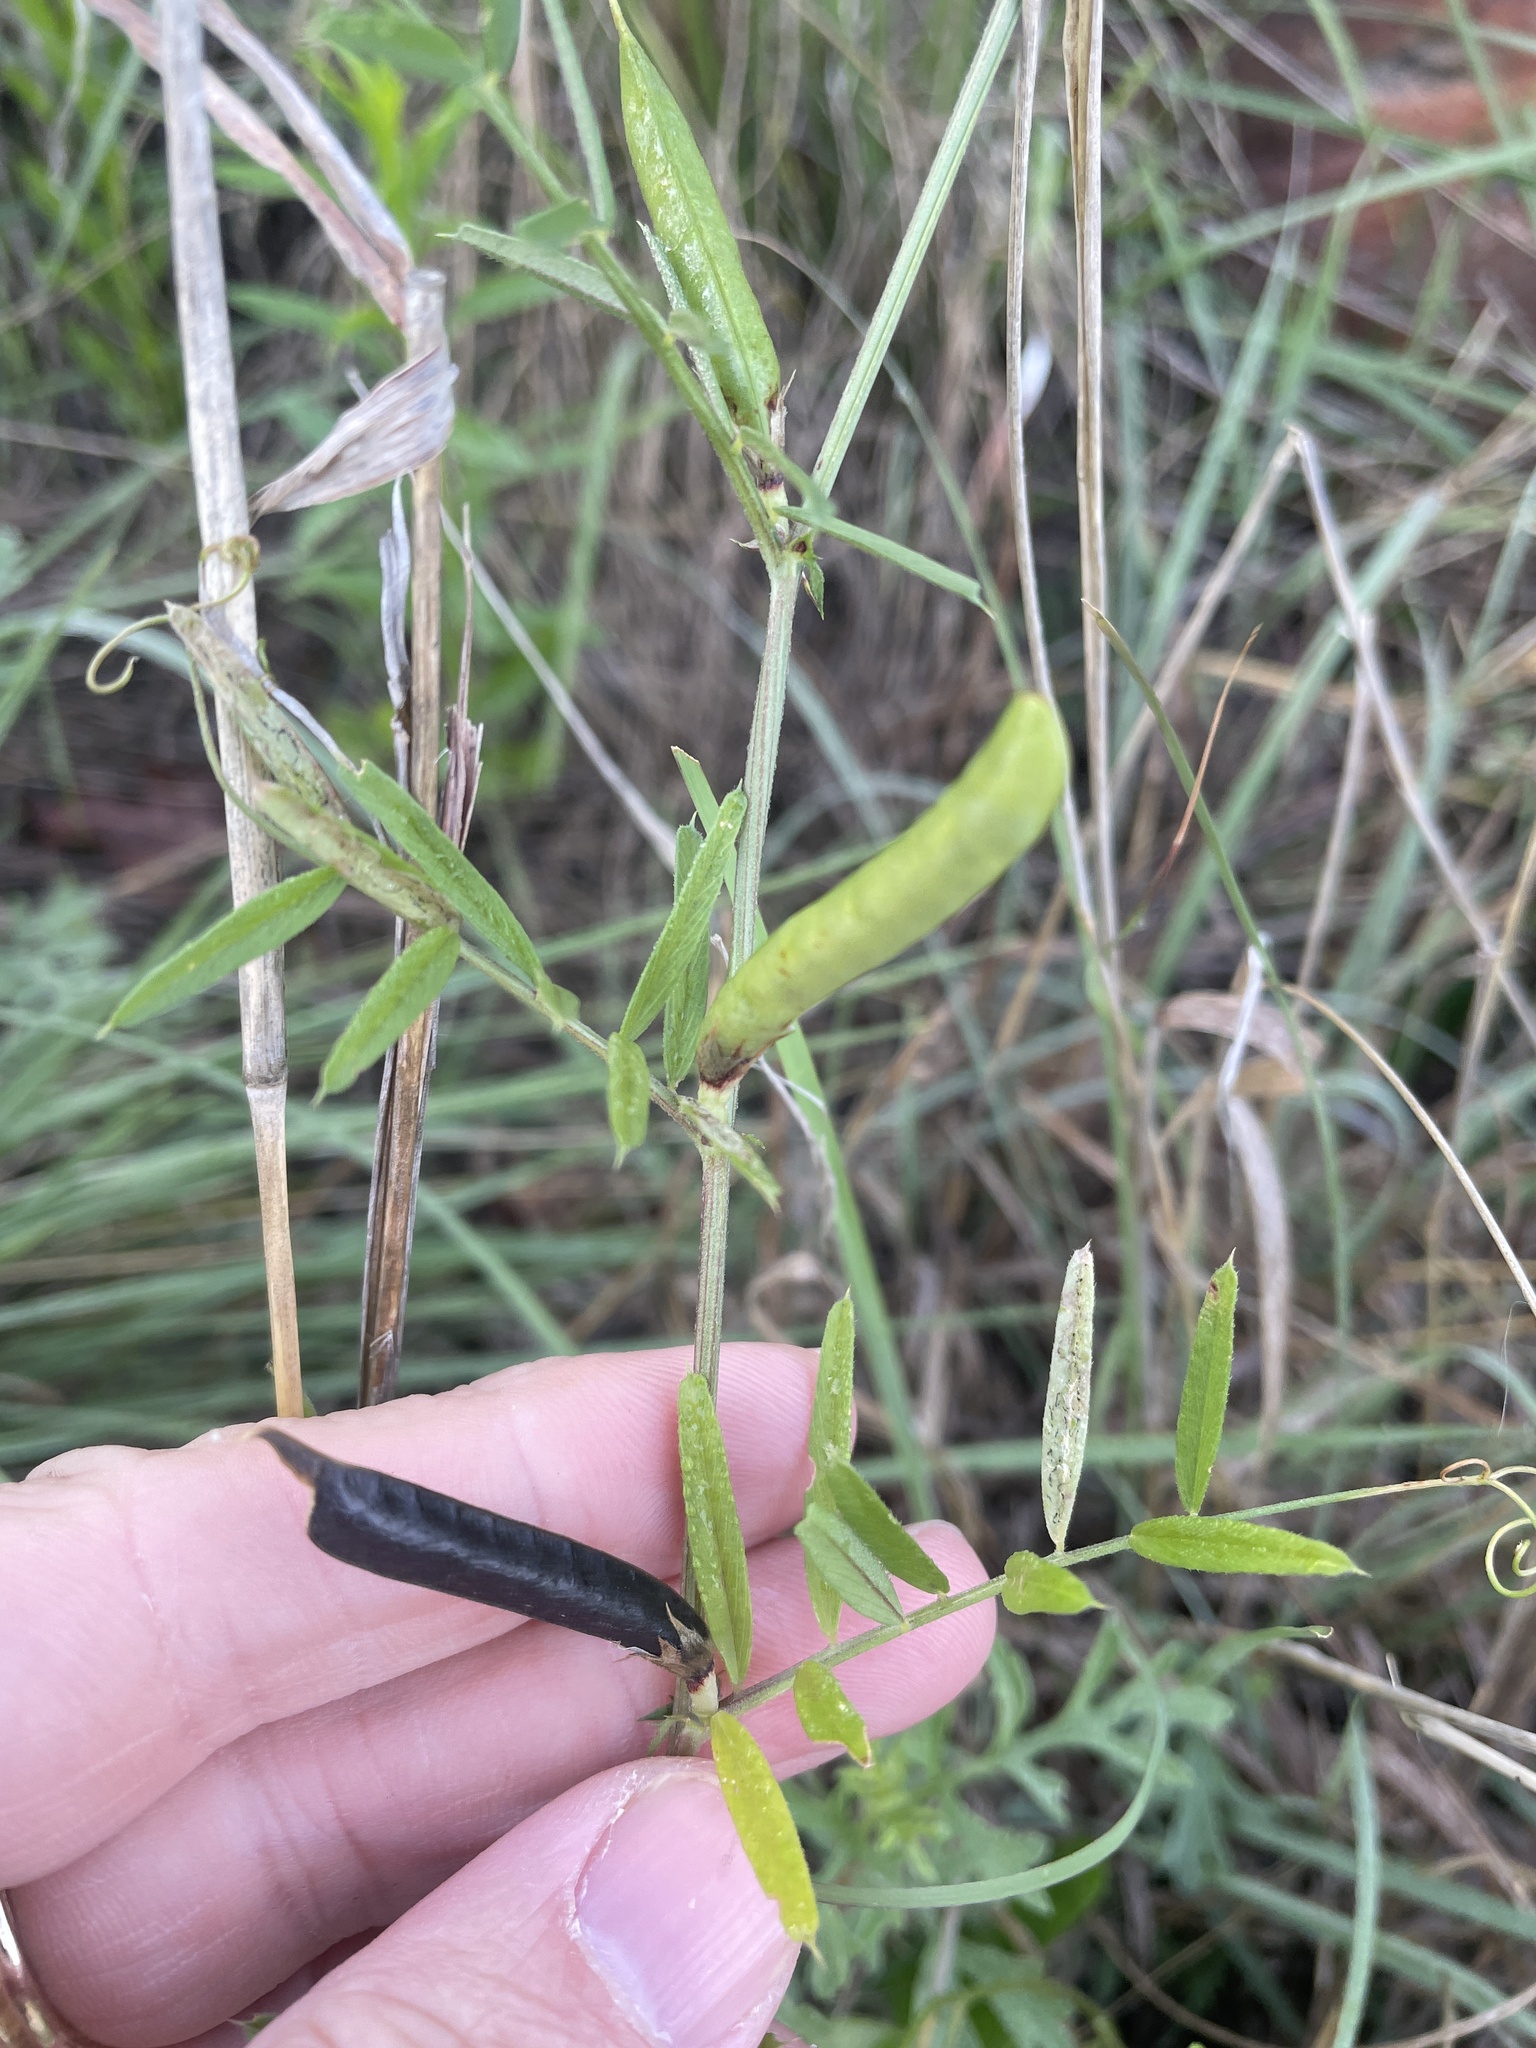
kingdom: Plantae
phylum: Tracheophyta
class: Magnoliopsida
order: Fabales
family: Fabaceae
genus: Vicia
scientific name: Vicia sativa
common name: Garden vetch
